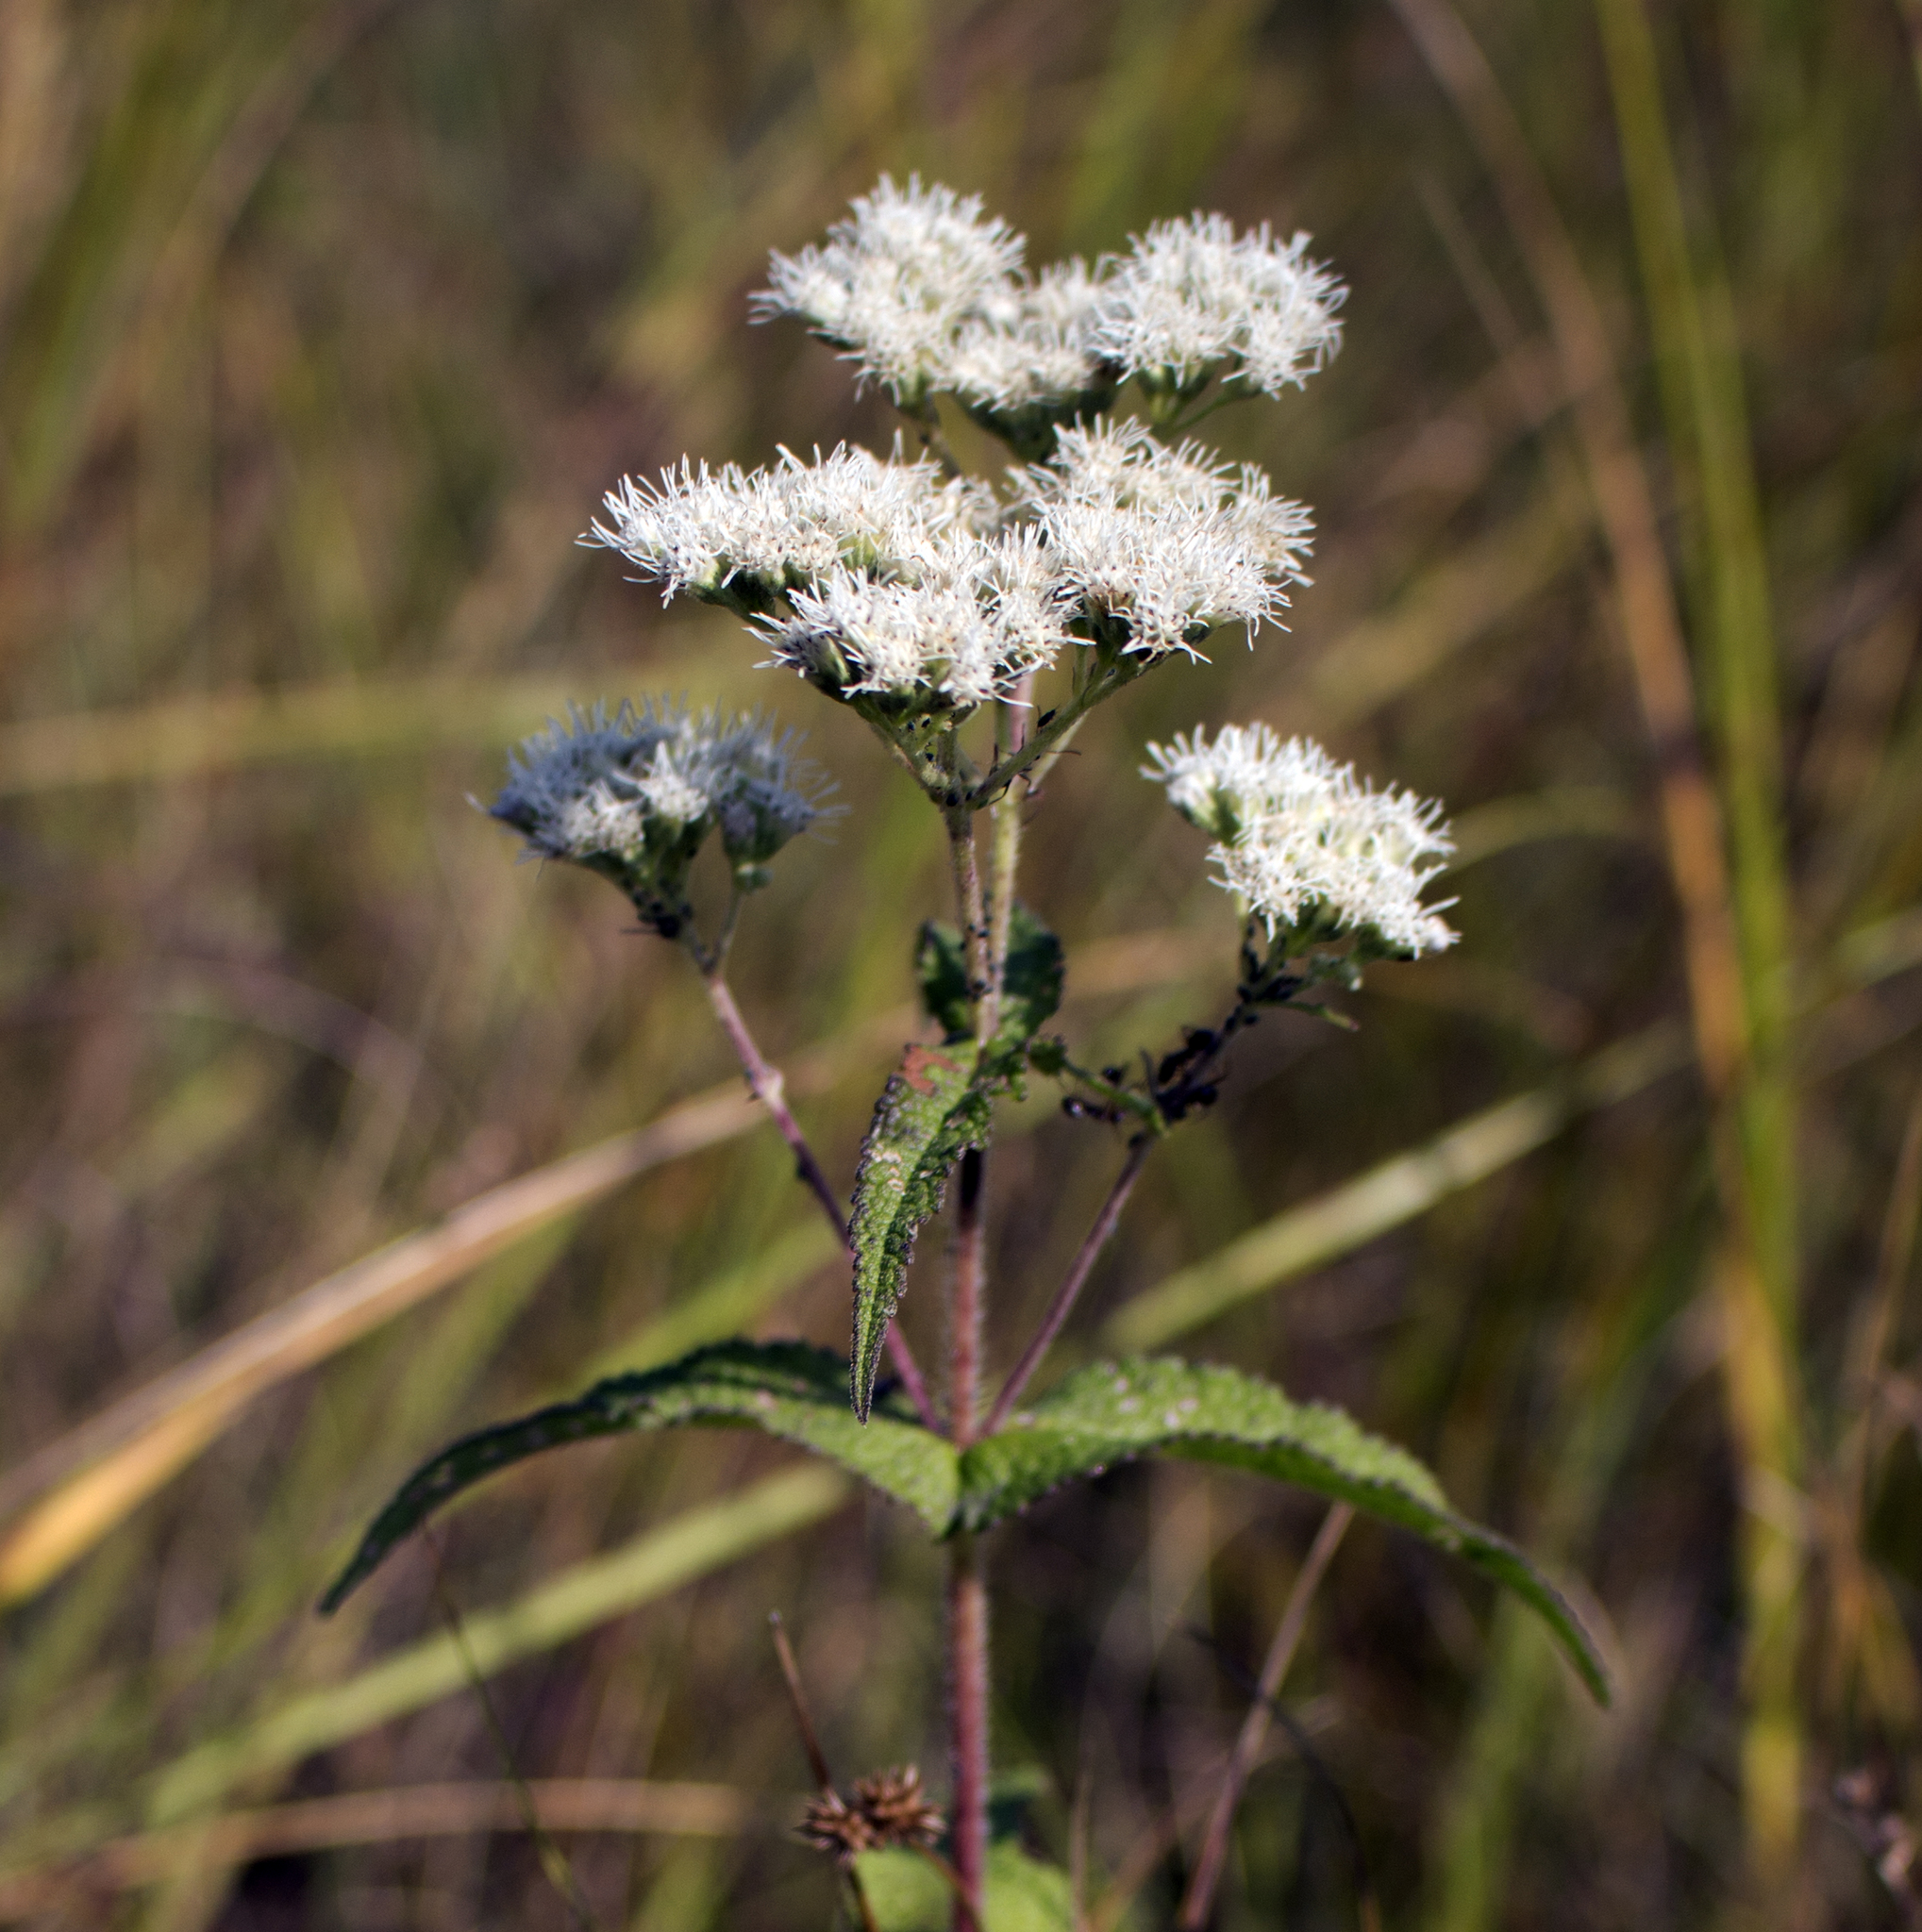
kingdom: Plantae
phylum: Tracheophyta
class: Magnoliopsida
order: Asterales
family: Asteraceae
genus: Eupatorium
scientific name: Eupatorium perfoliatum
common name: Boneset
